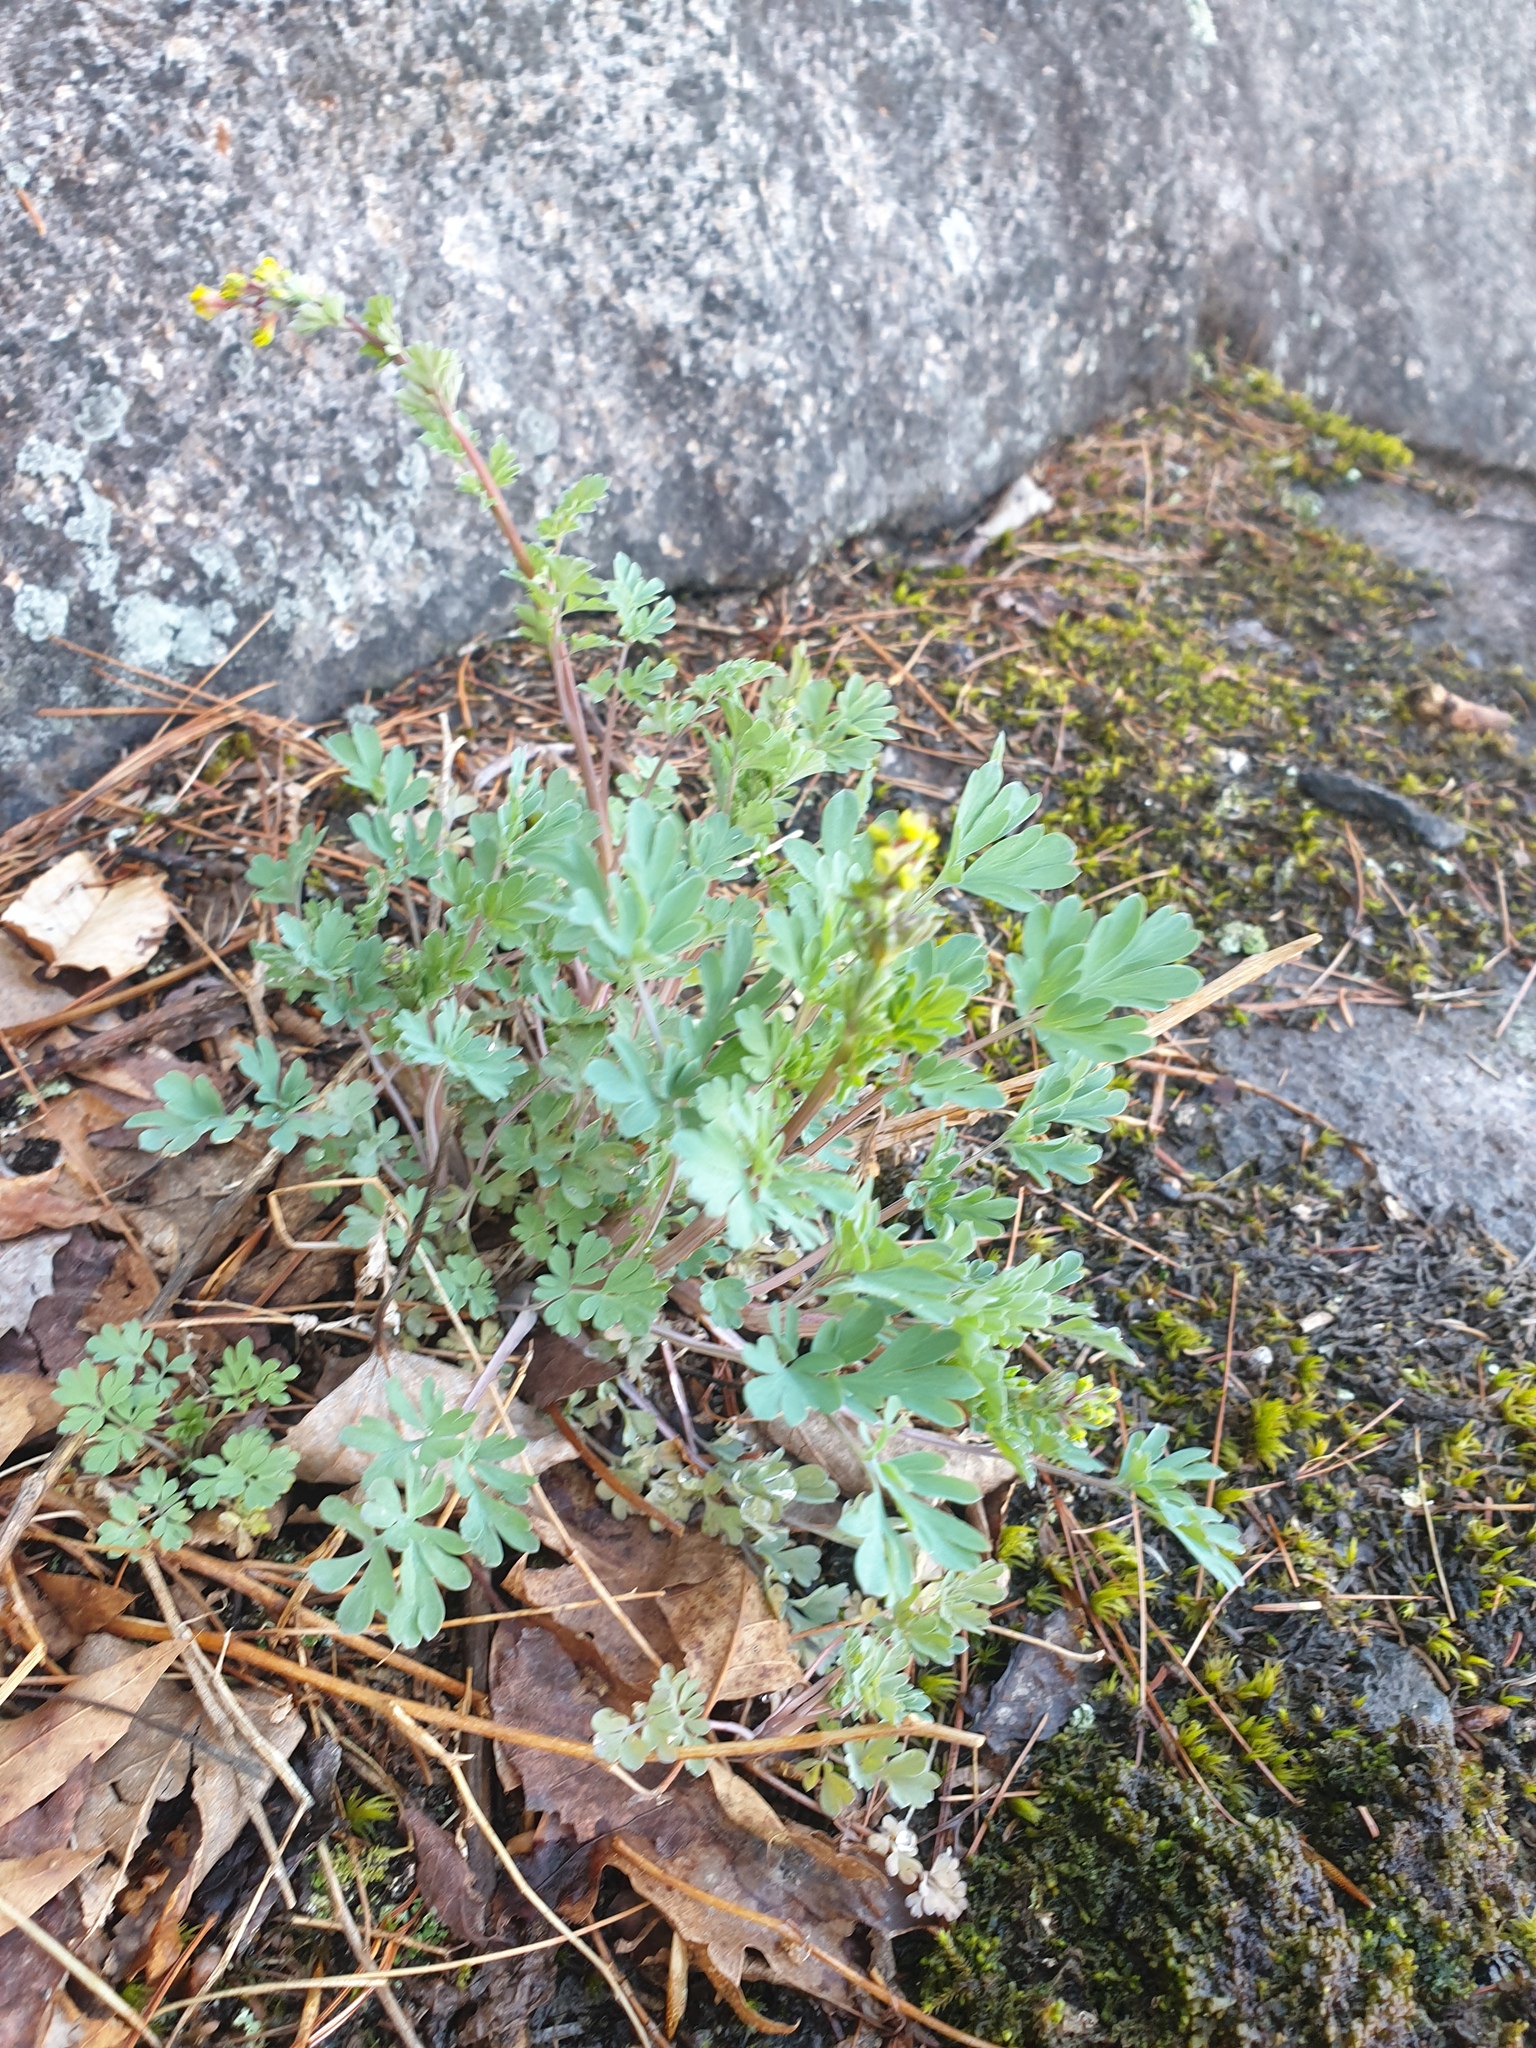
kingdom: Plantae
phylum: Tracheophyta
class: Magnoliopsida
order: Ranunculales
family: Papaveraceae
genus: Capnoides
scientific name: Capnoides sempervirens
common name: Rock harlequin
